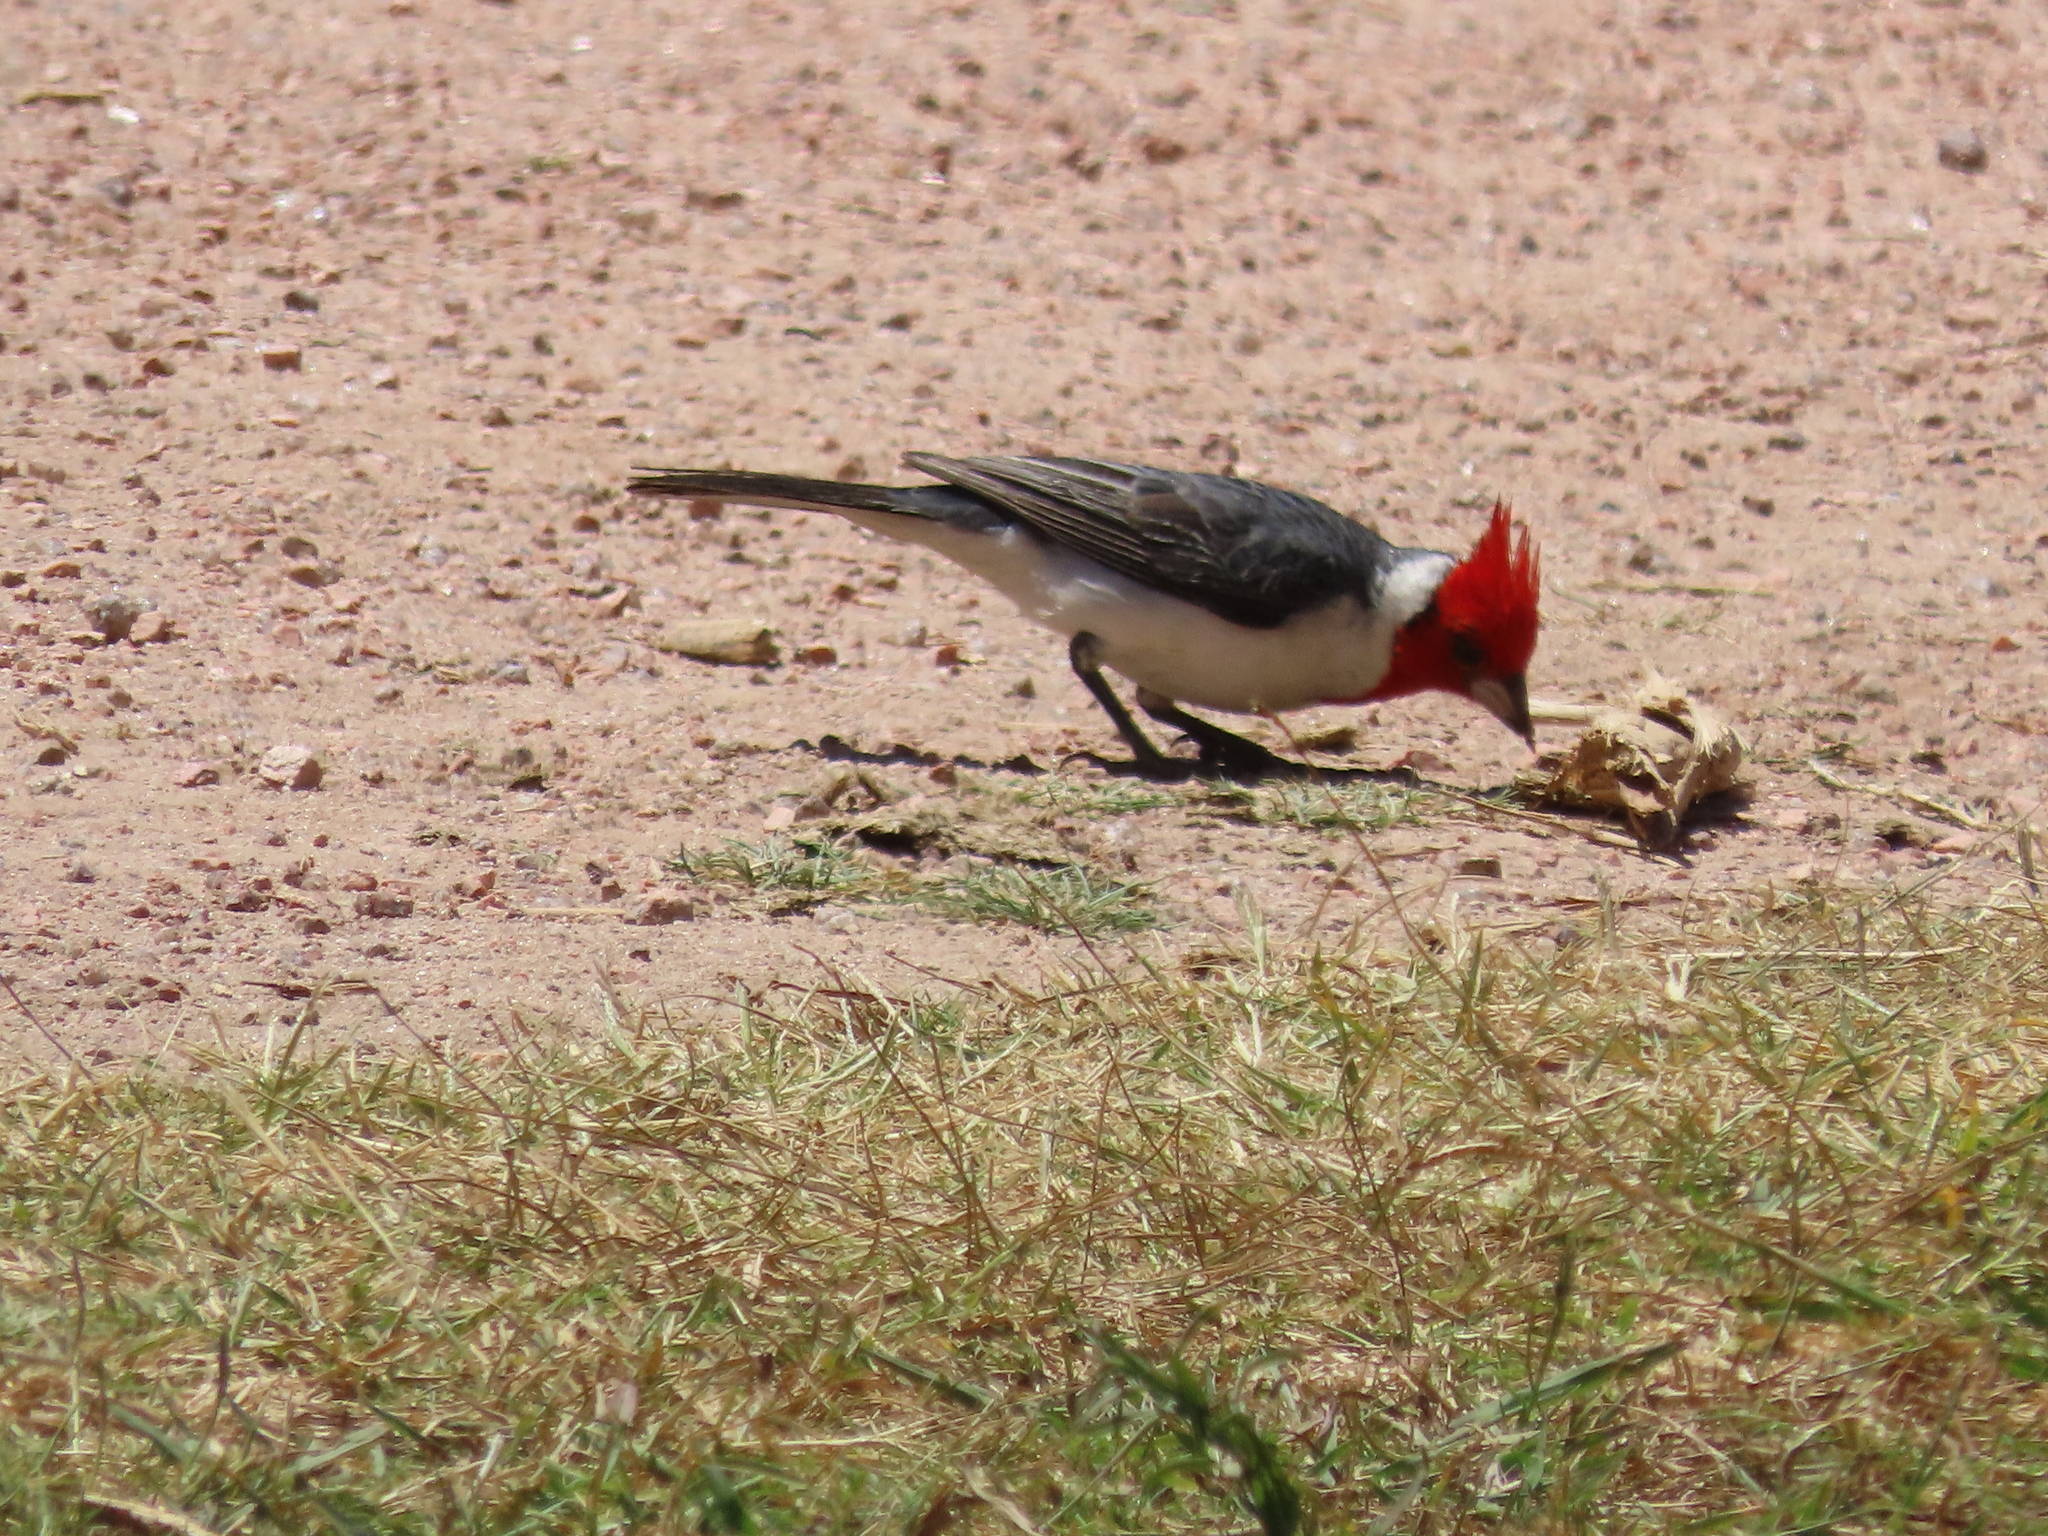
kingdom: Animalia
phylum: Chordata
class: Aves
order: Passeriformes
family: Thraupidae
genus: Paroaria
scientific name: Paroaria coronata
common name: Red-crested cardinal
